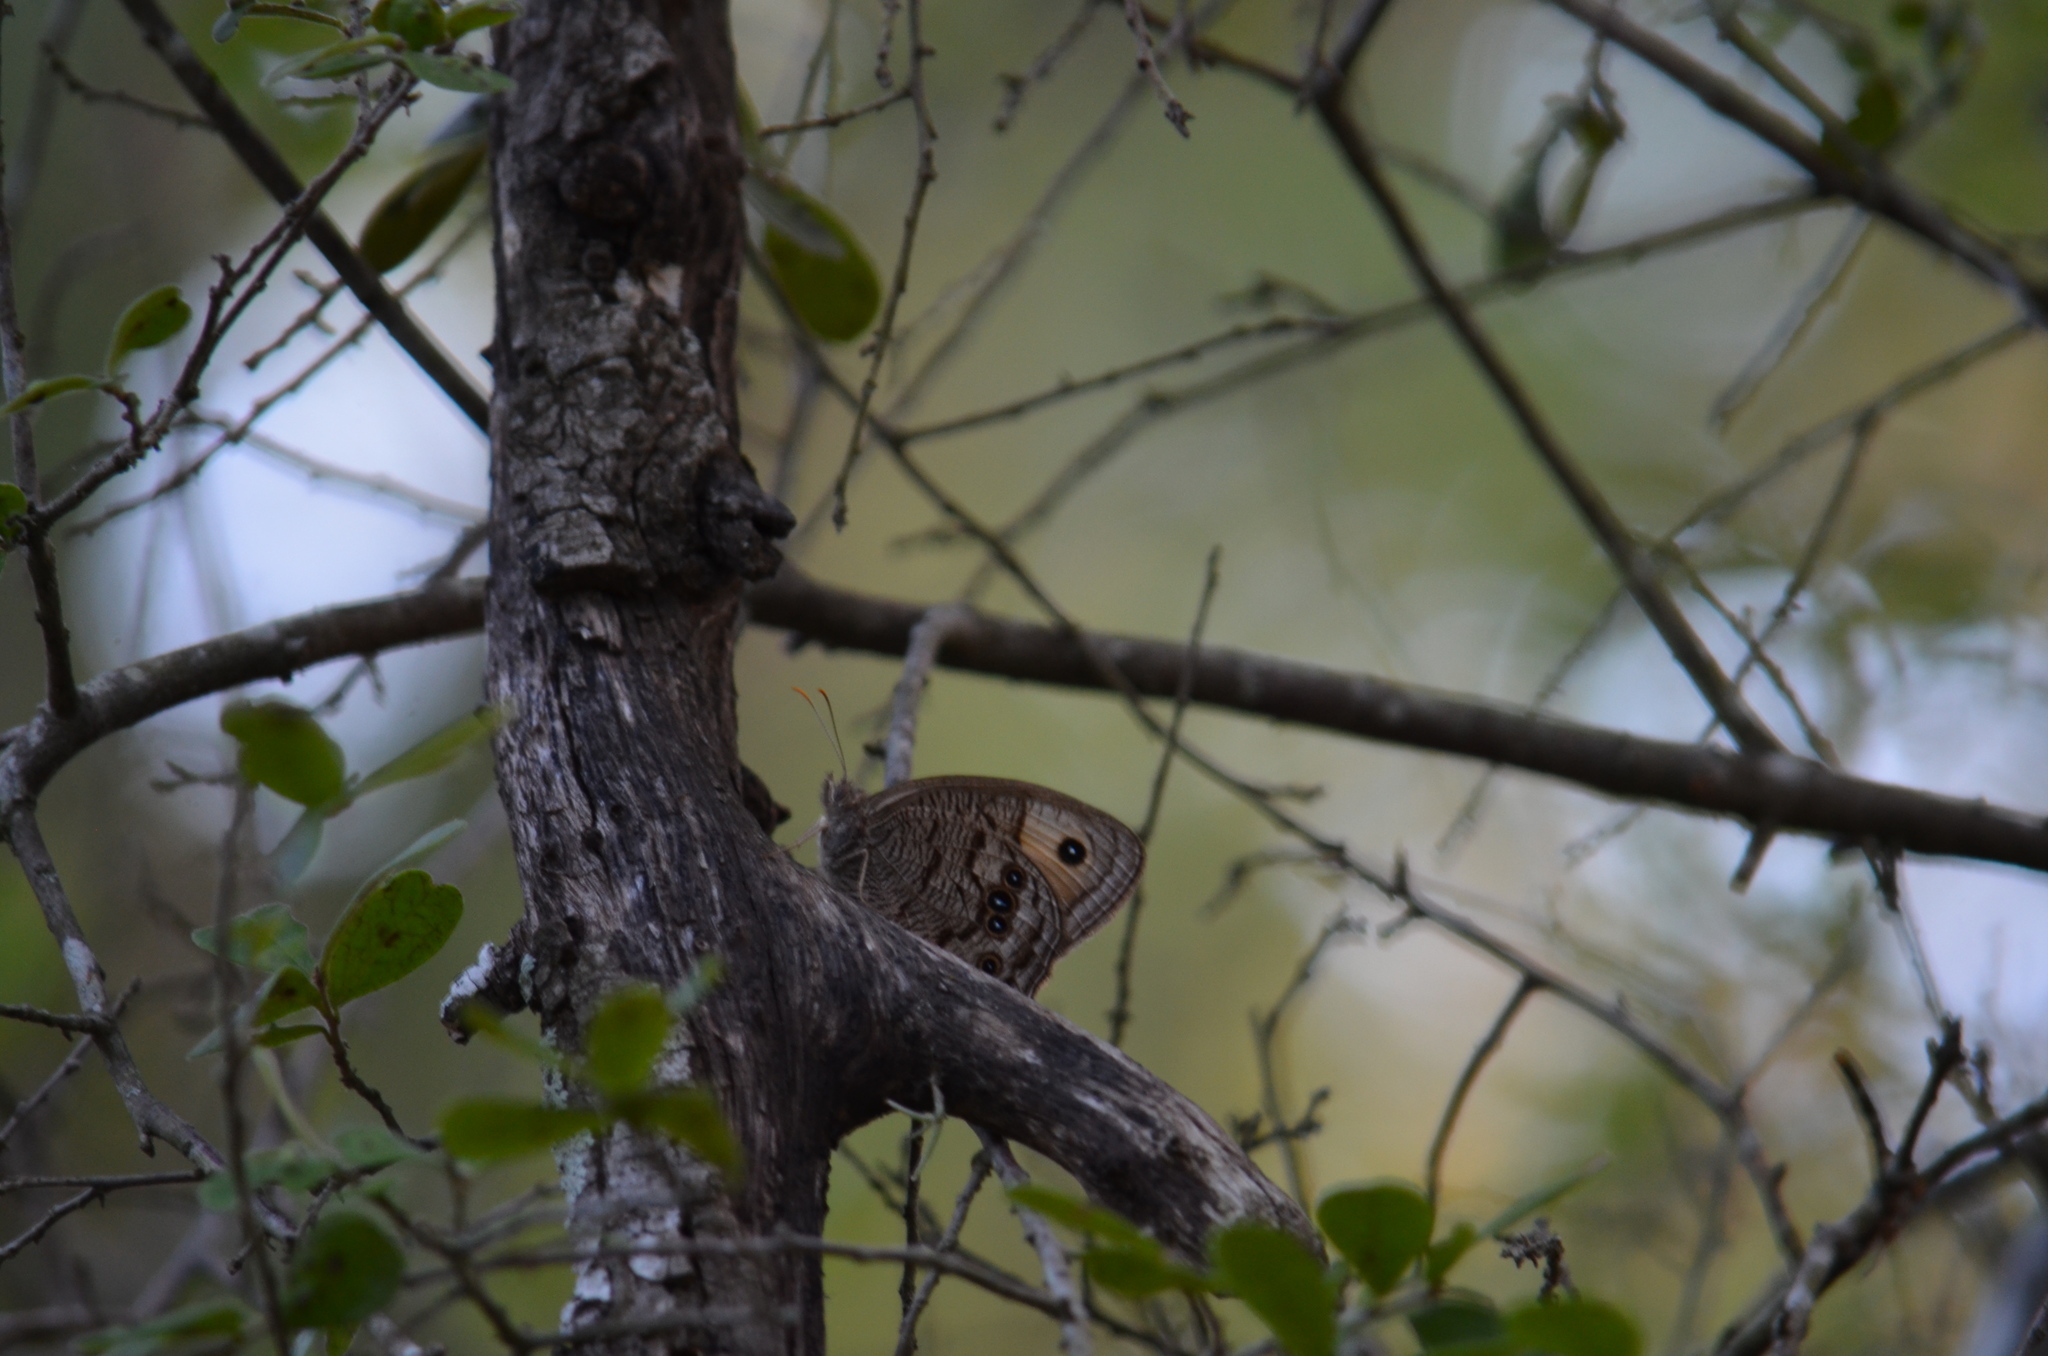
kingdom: Animalia
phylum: Arthropoda
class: Insecta
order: Lepidoptera
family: Nymphalidae
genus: Cercyonis
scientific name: Cercyonis pegala
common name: Common wood-nymph
